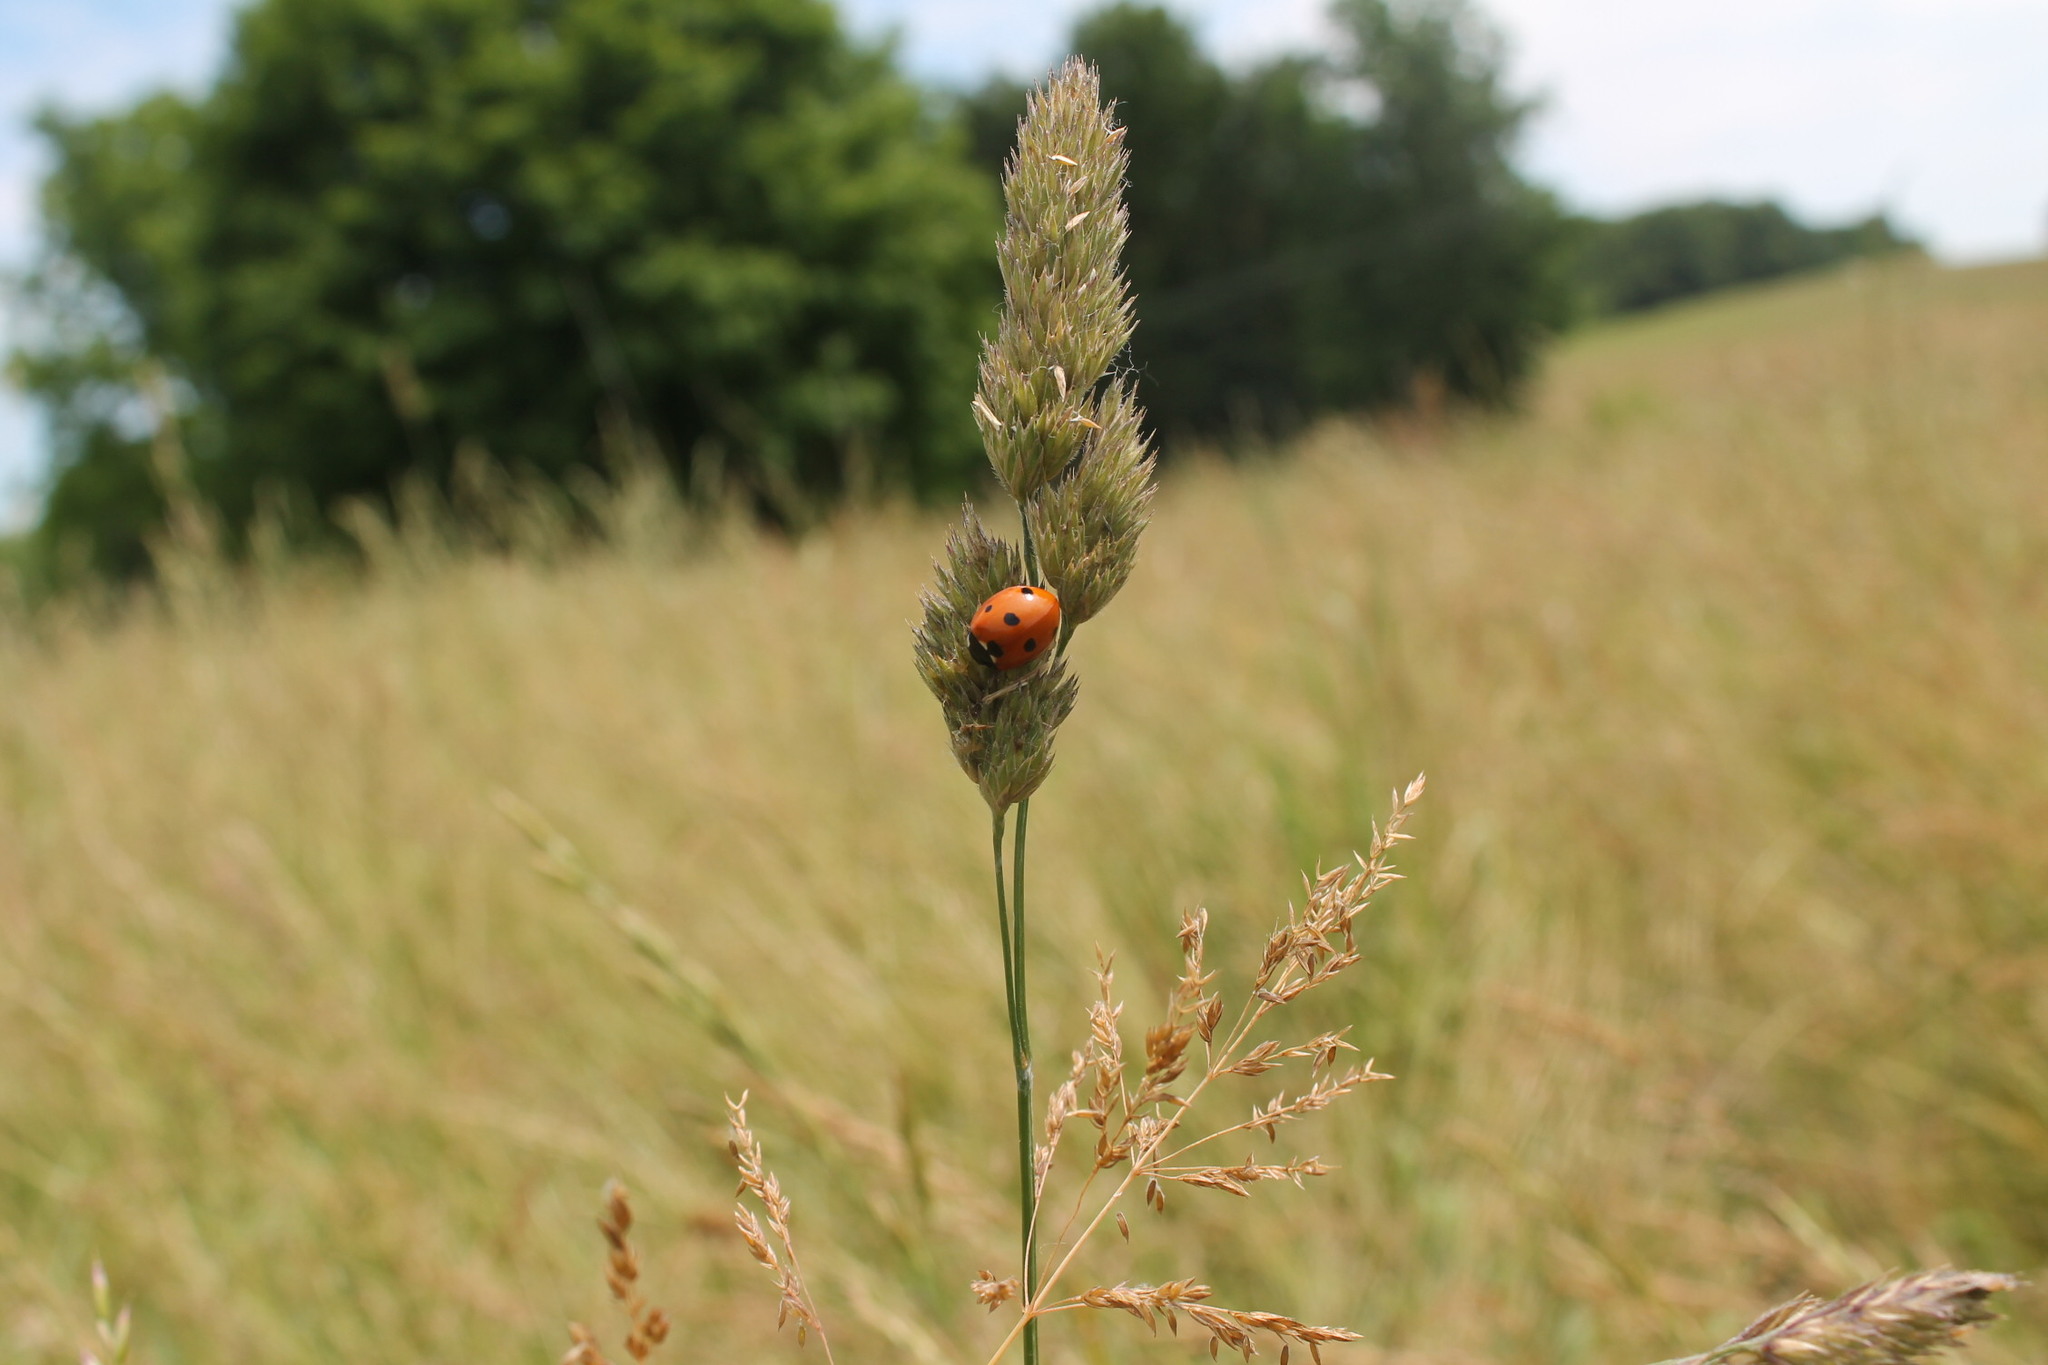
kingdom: Animalia
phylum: Arthropoda
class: Insecta
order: Coleoptera
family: Coccinellidae
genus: Coccinella
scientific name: Coccinella septempunctata
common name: Sevenspotted lady beetle
